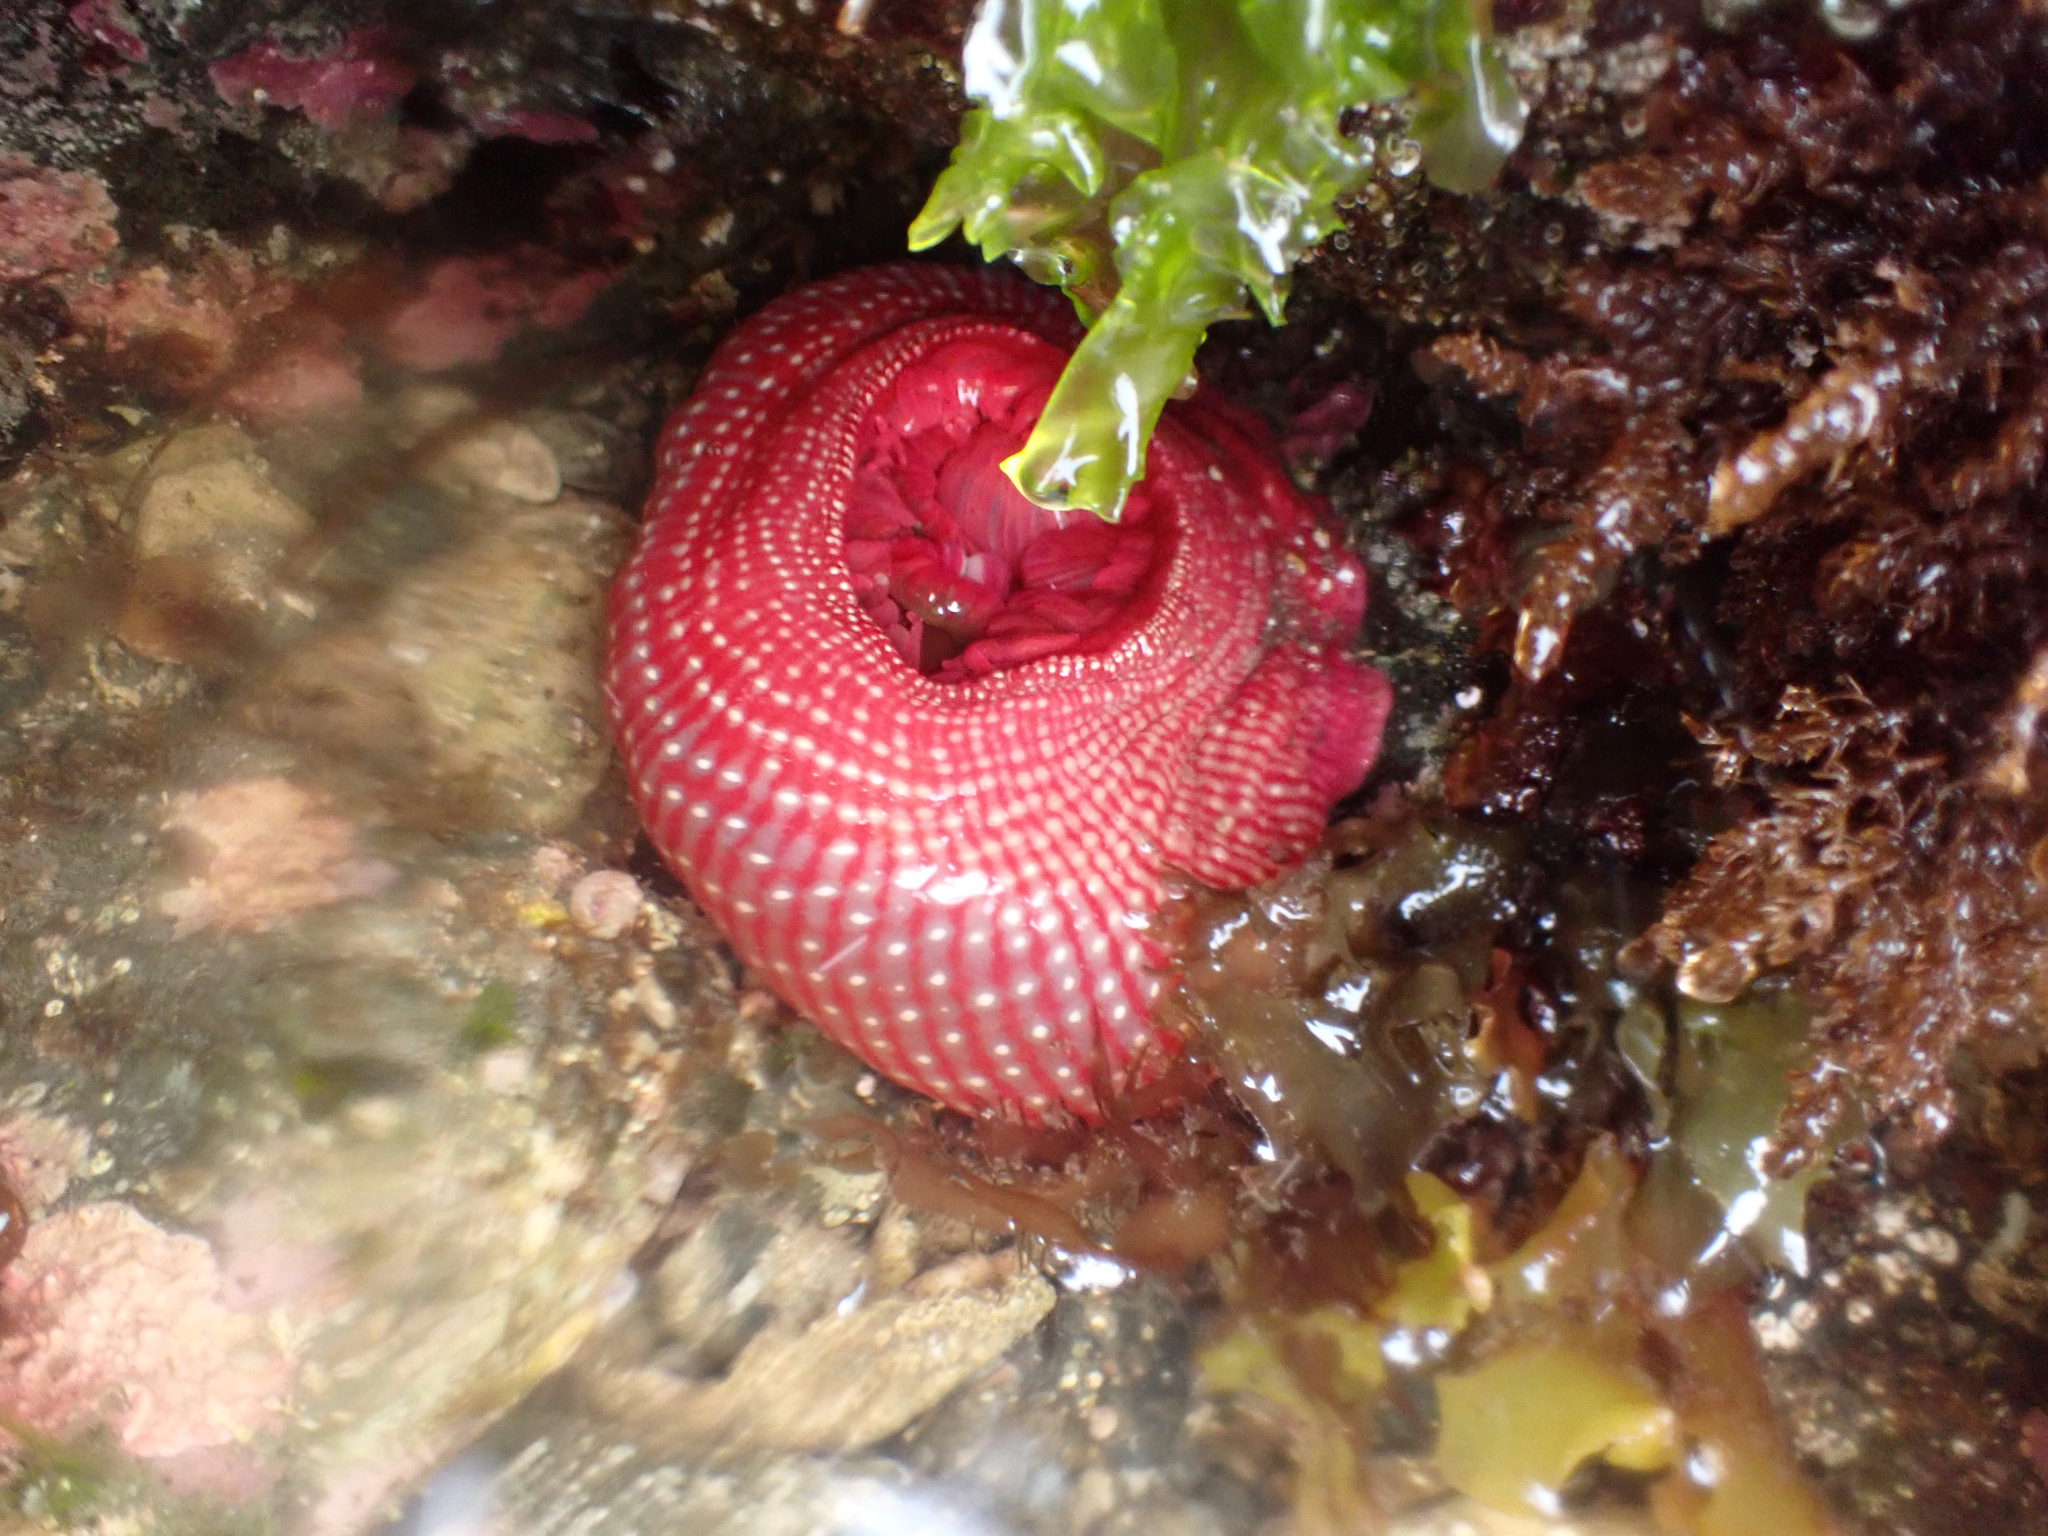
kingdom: Animalia
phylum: Cnidaria
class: Anthozoa
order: Actiniaria
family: Actiniidae
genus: Cribrinopsis
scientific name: Cribrinopsis albopunctata
